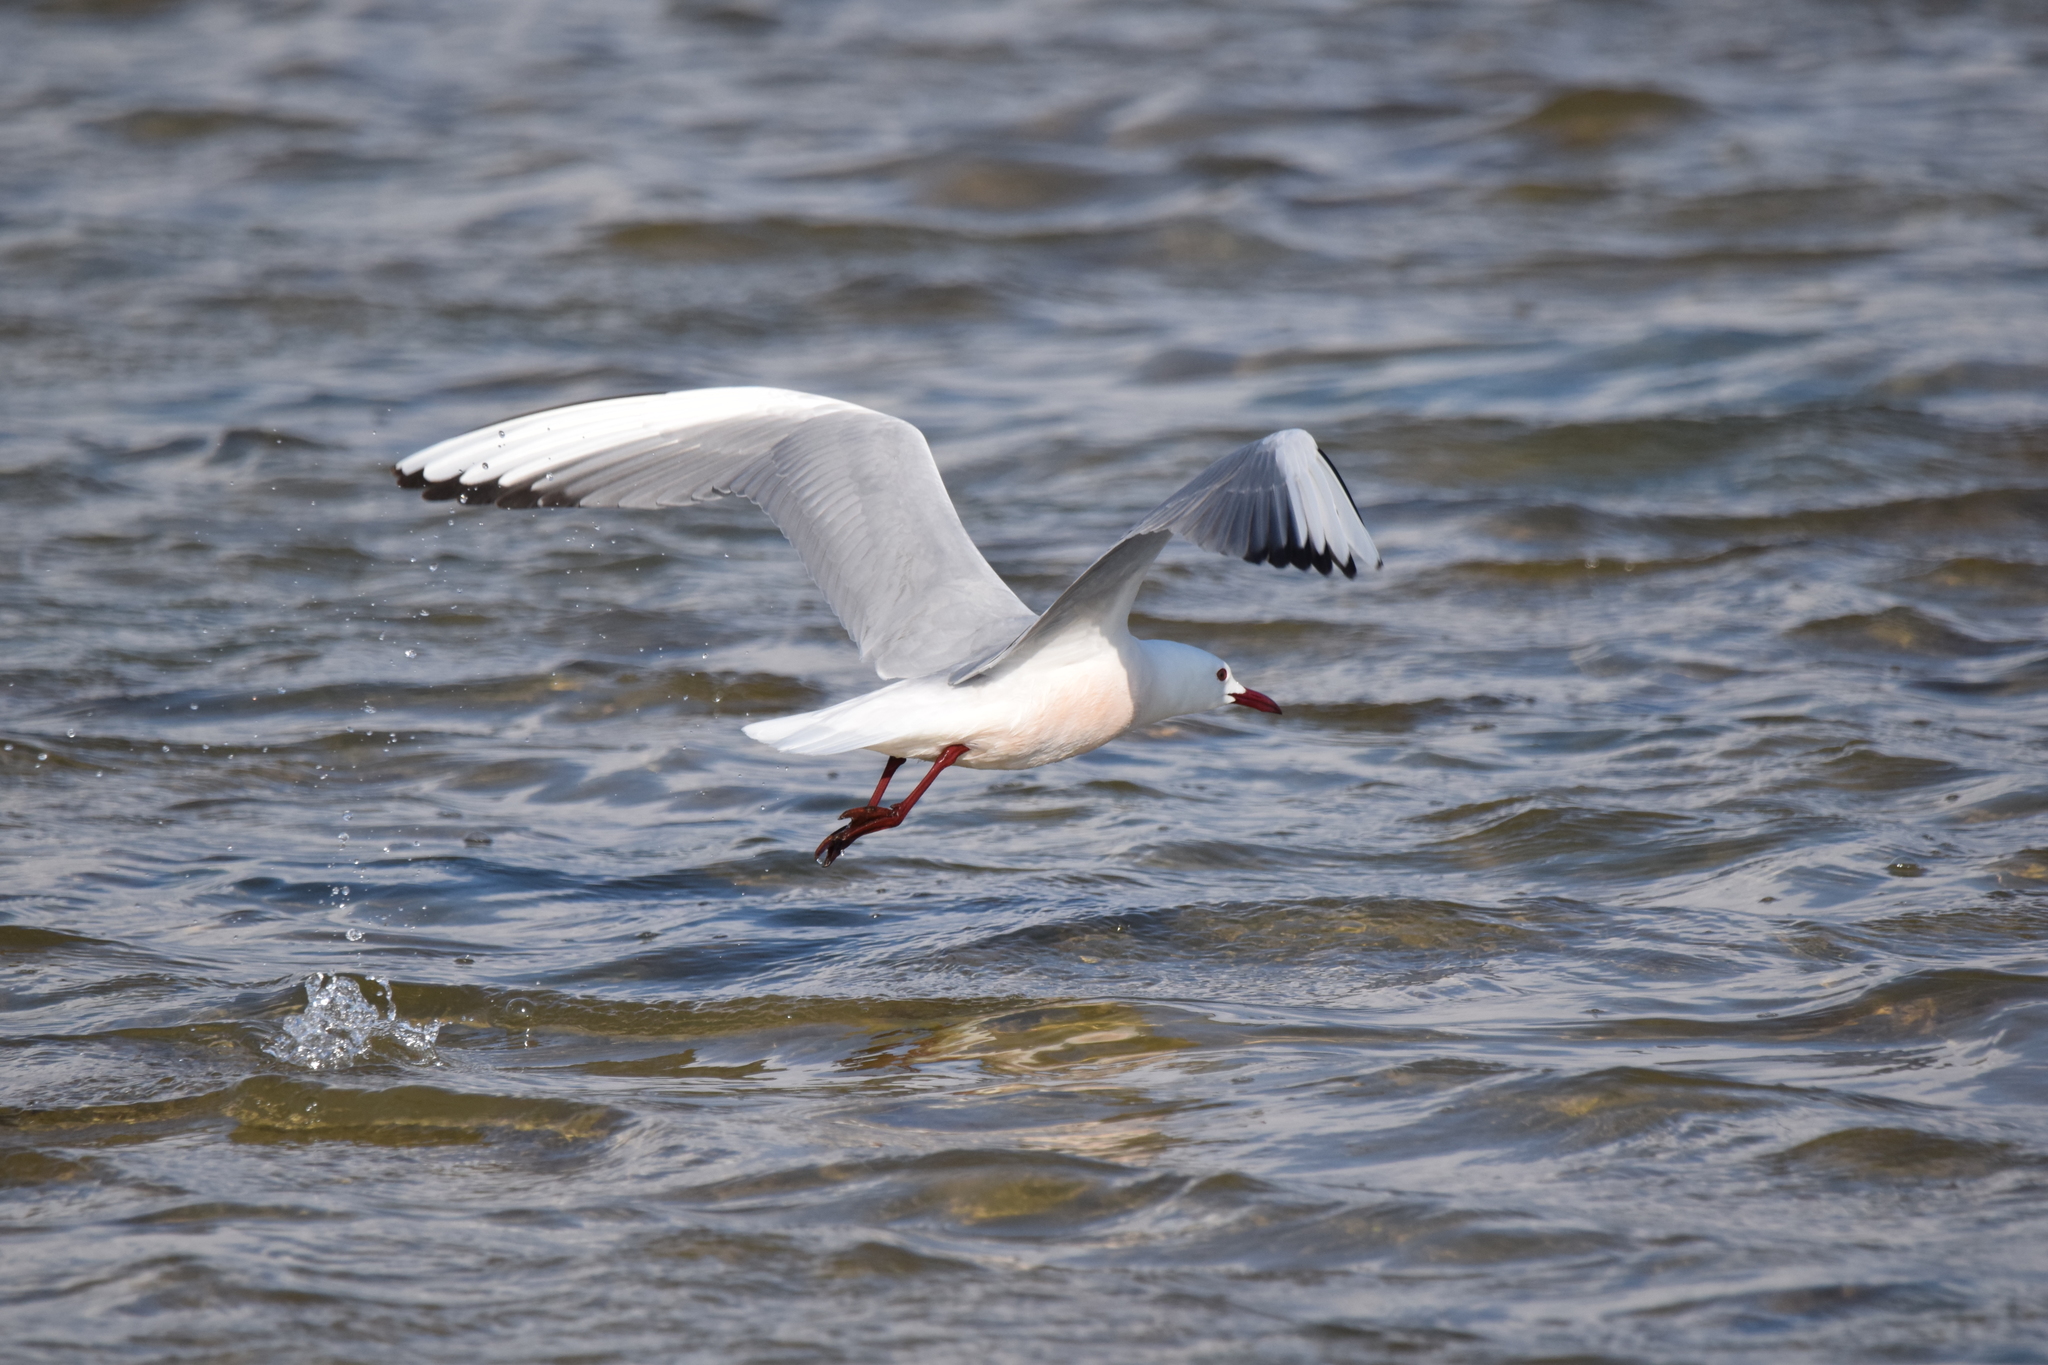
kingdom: Animalia
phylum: Chordata
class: Aves
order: Charadriiformes
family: Laridae
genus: Chroicocephalus
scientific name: Chroicocephalus genei
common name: Slender-billed gull
